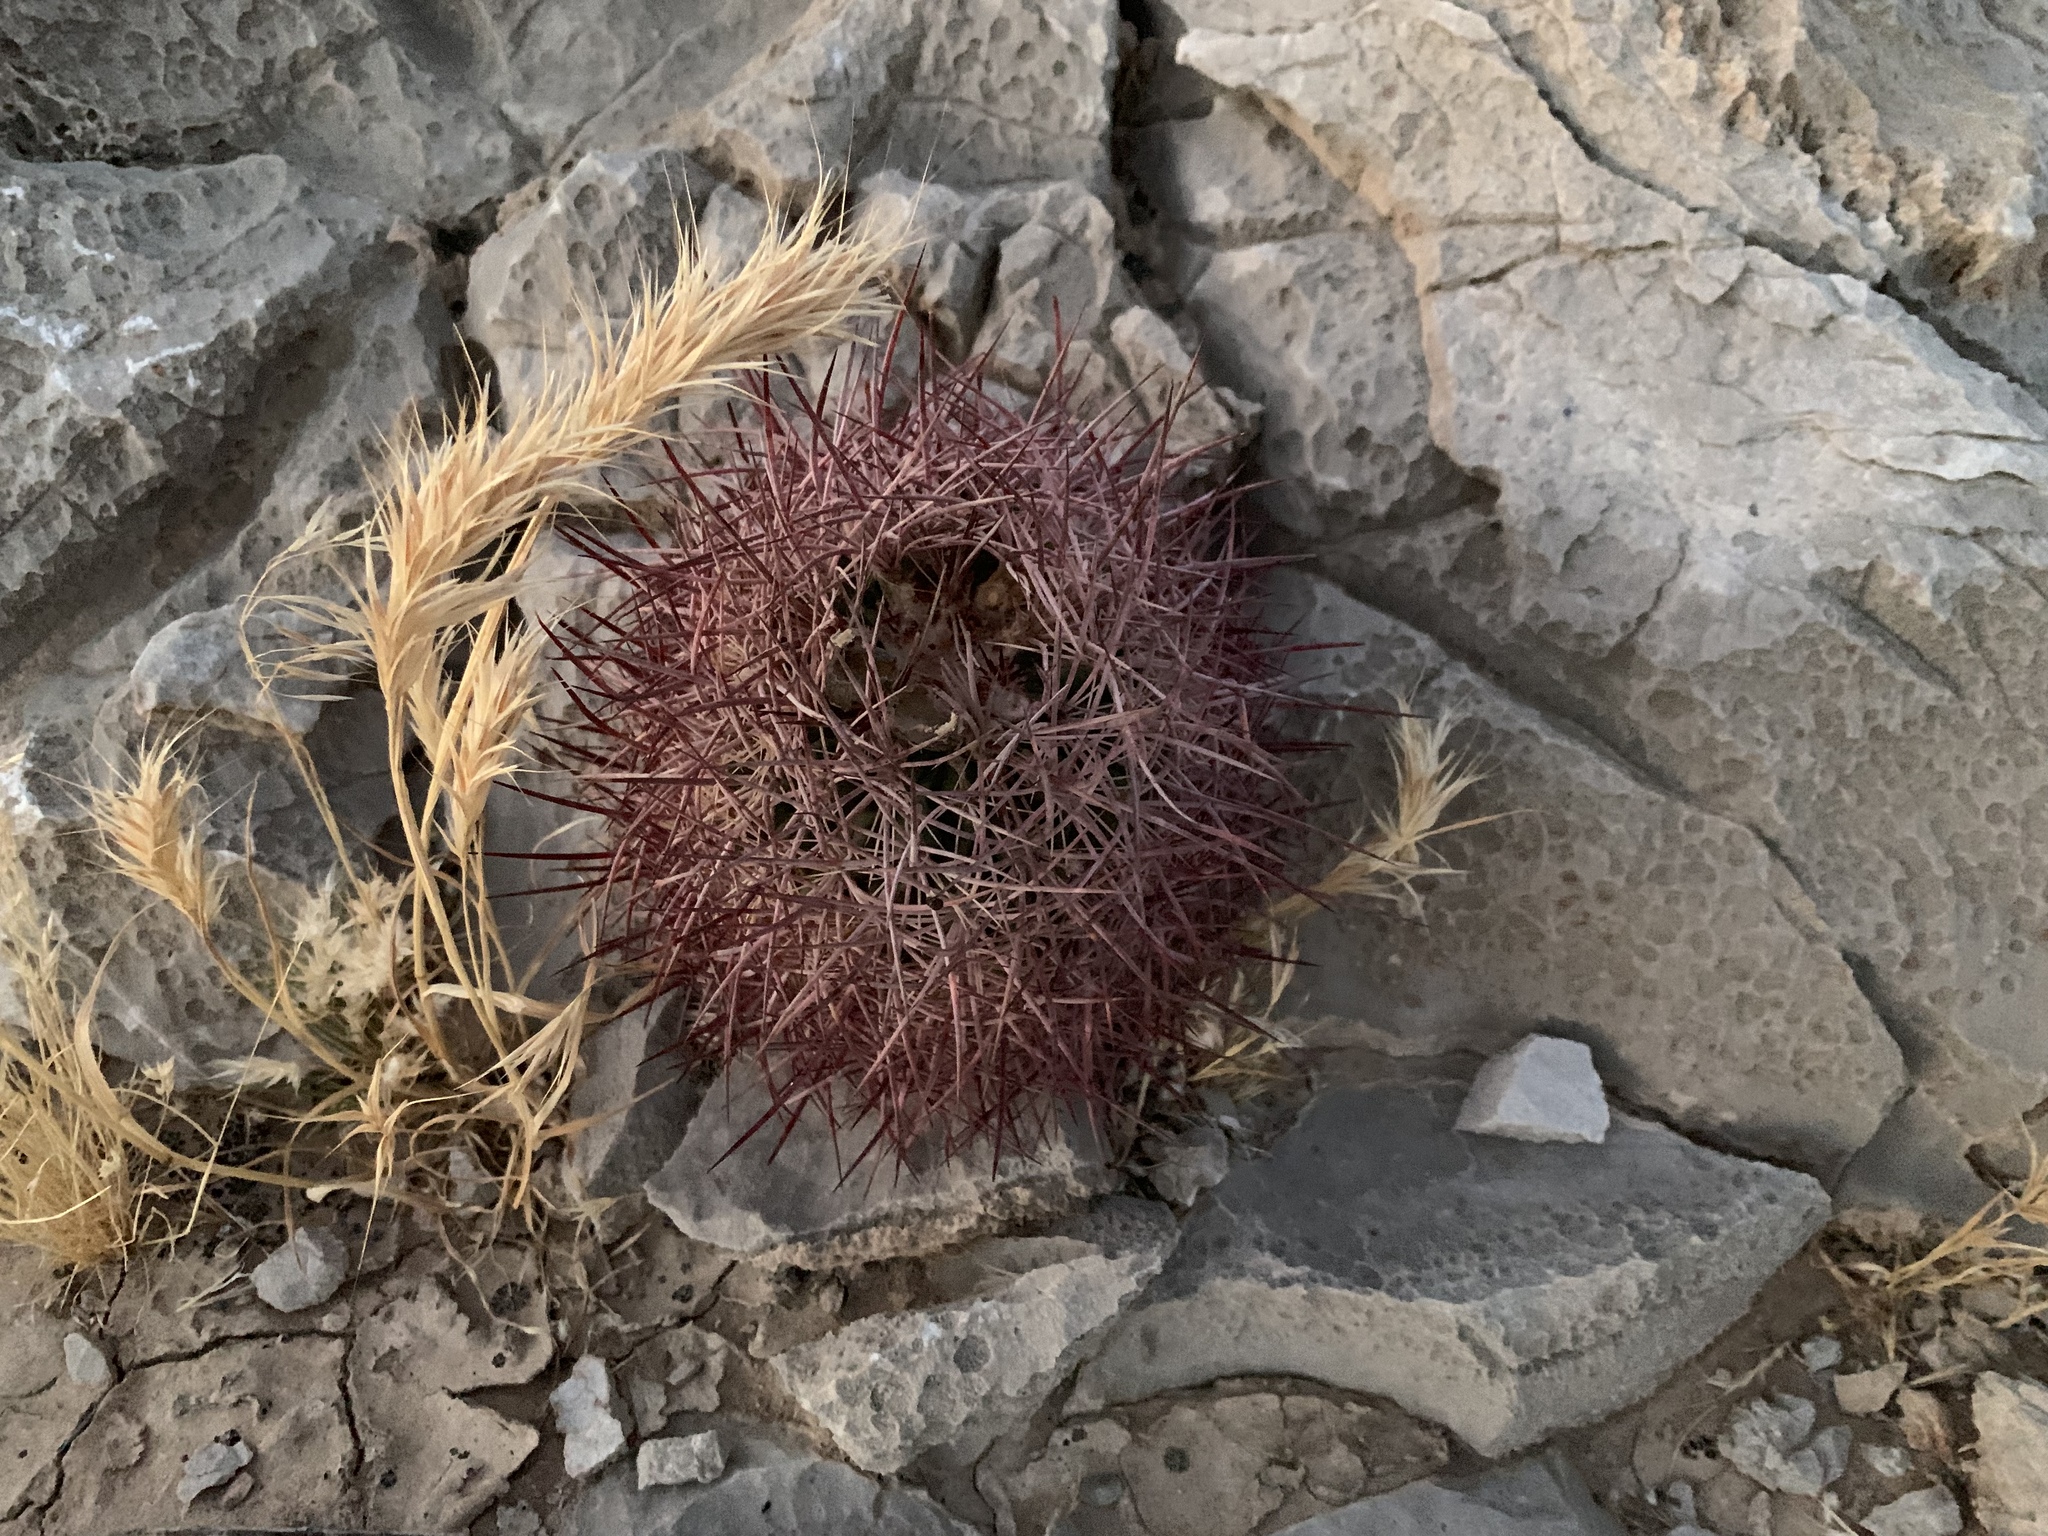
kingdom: Plantae
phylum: Tracheophyta
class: Magnoliopsida
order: Caryophyllales
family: Cactaceae
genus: Sclerocactus
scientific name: Sclerocactus johnsonii
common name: Eight-spine fishhook cactus
